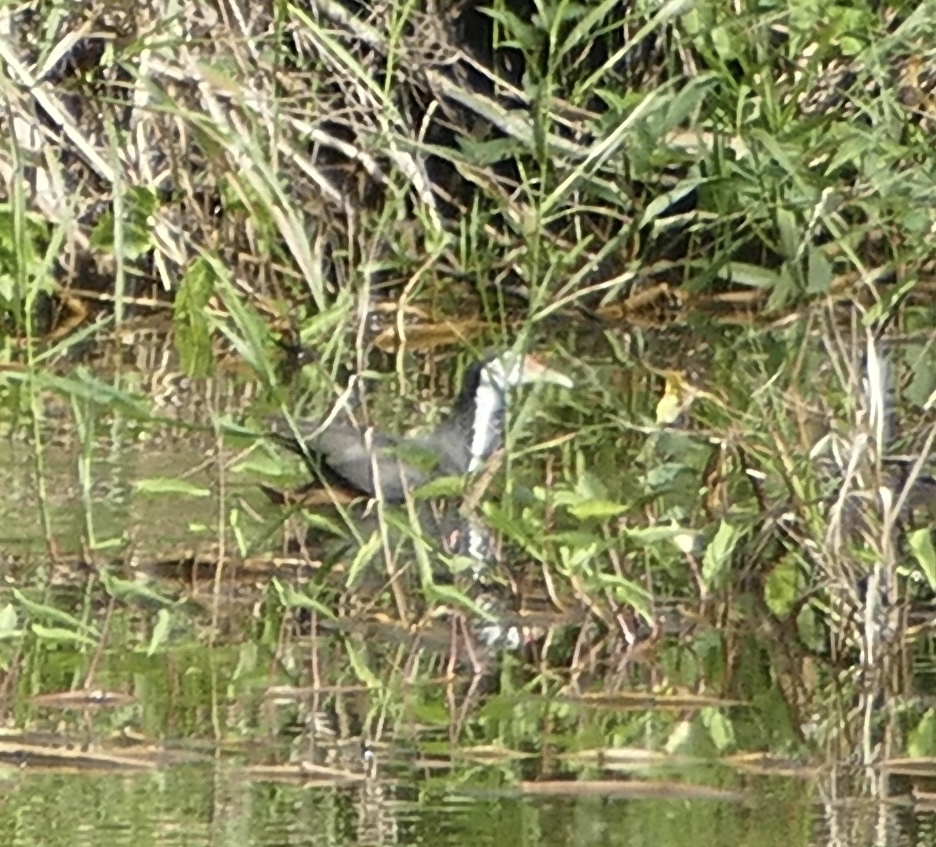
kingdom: Animalia
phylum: Chordata
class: Aves
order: Gruiformes
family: Rallidae
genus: Amaurornis
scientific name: Amaurornis phoenicurus
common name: White-breasted waterhen
